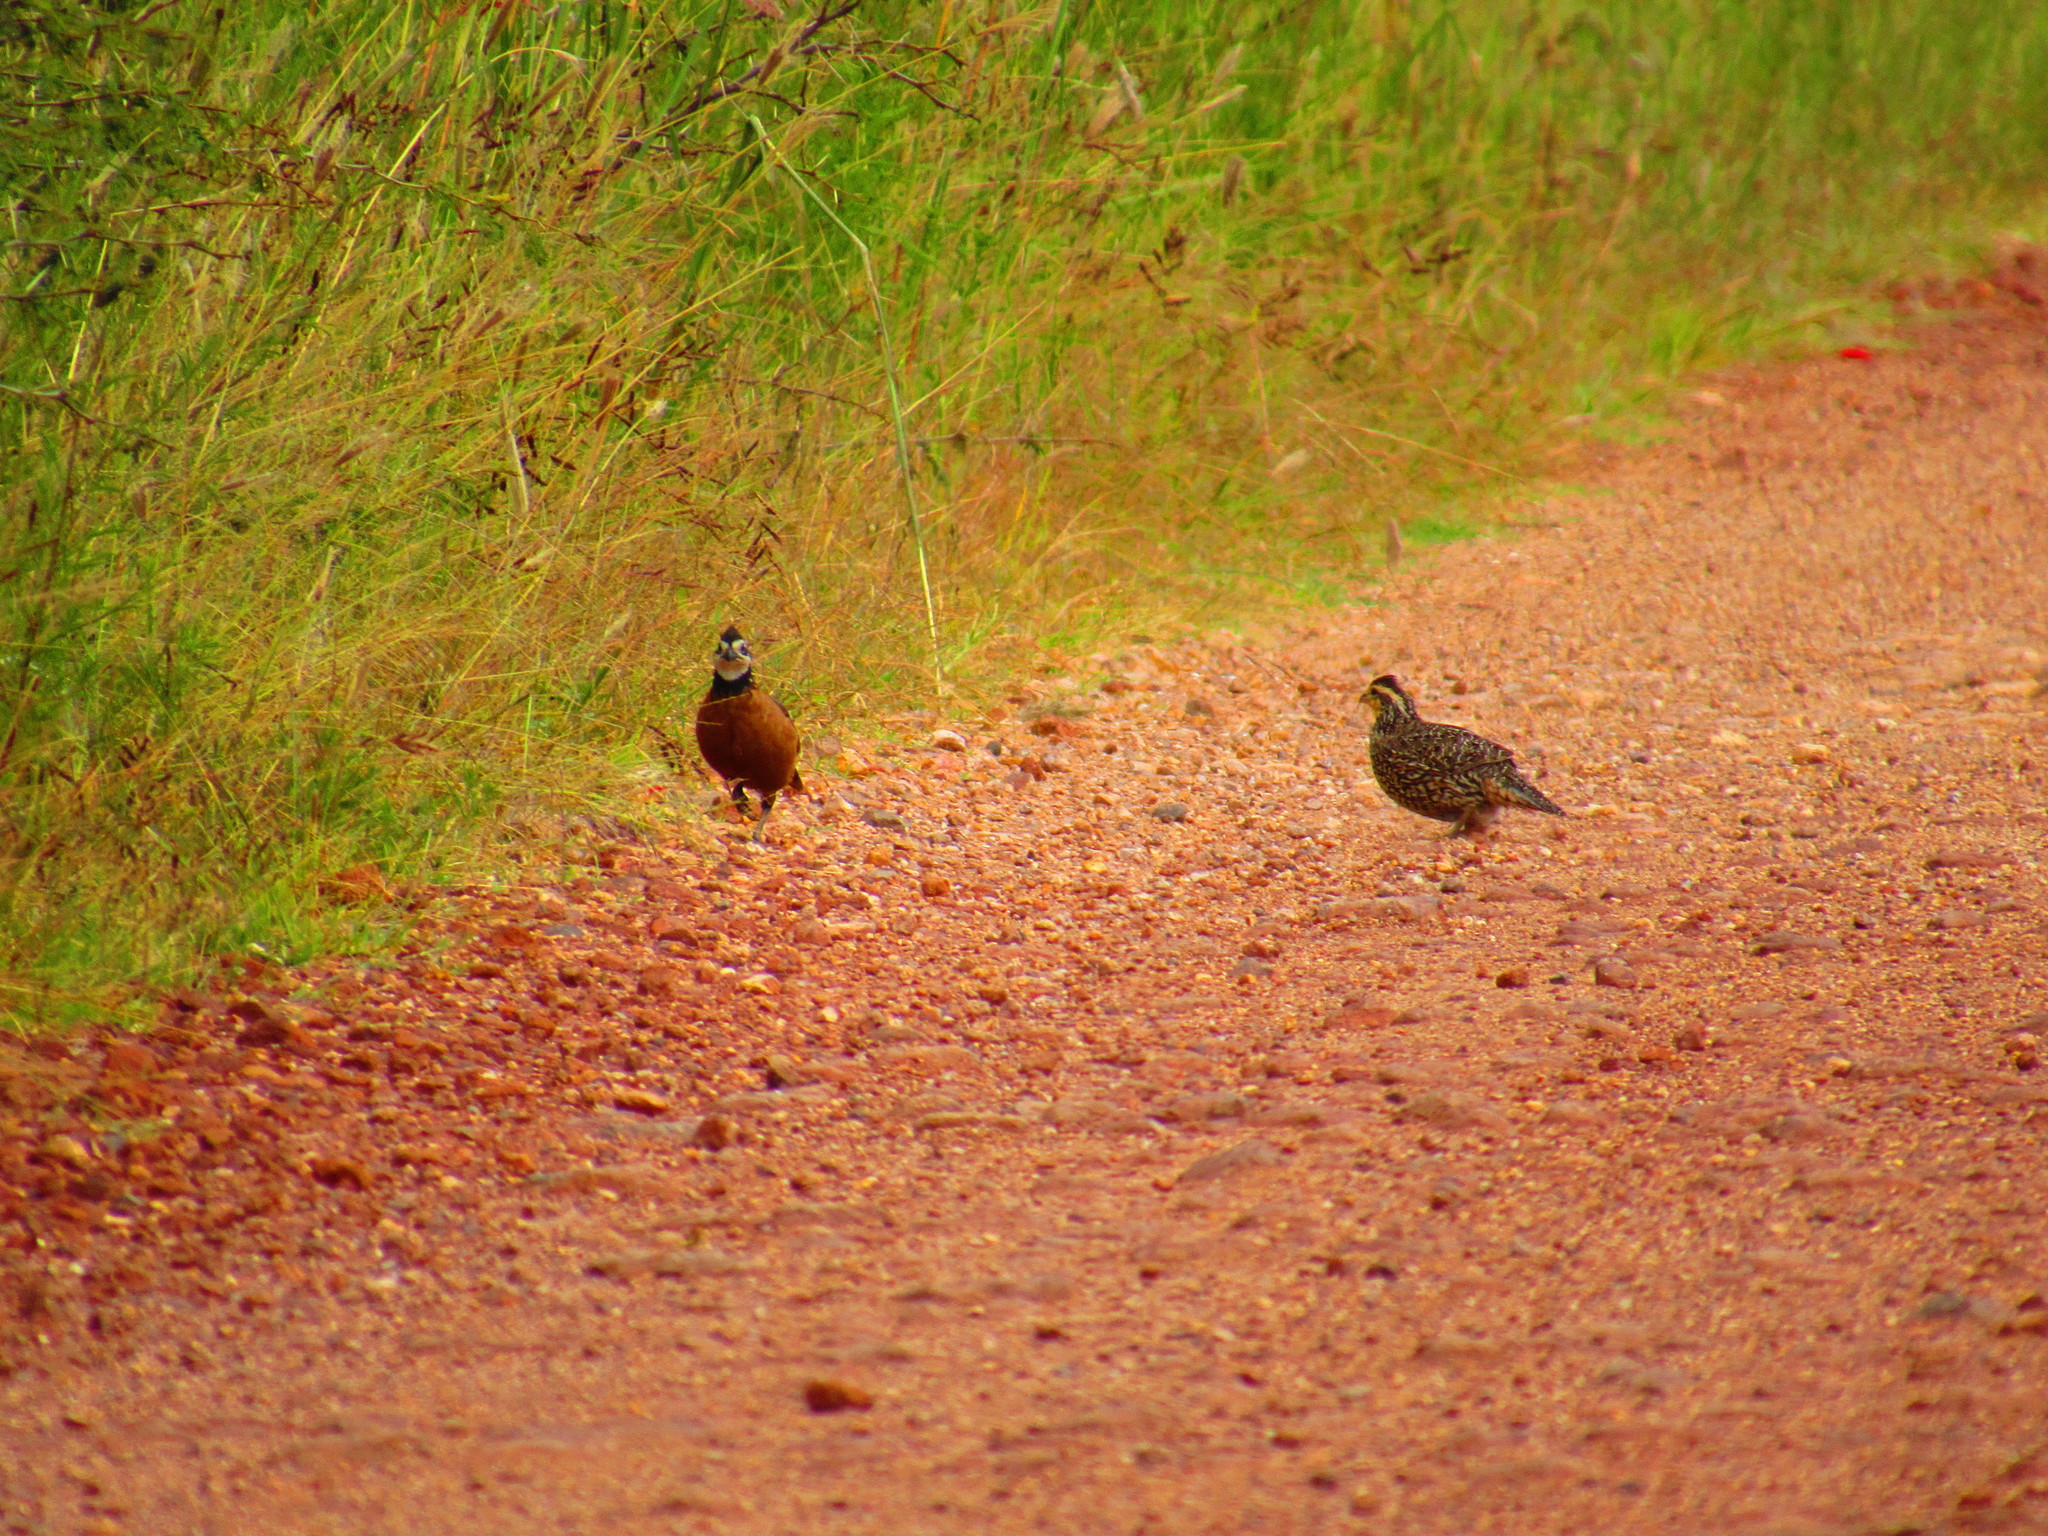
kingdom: Animalia
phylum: Chordata
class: Aves
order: Galliformes
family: Odontophoridae
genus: Colinus
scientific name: Colinus virginianus
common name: Northern bobwhite
